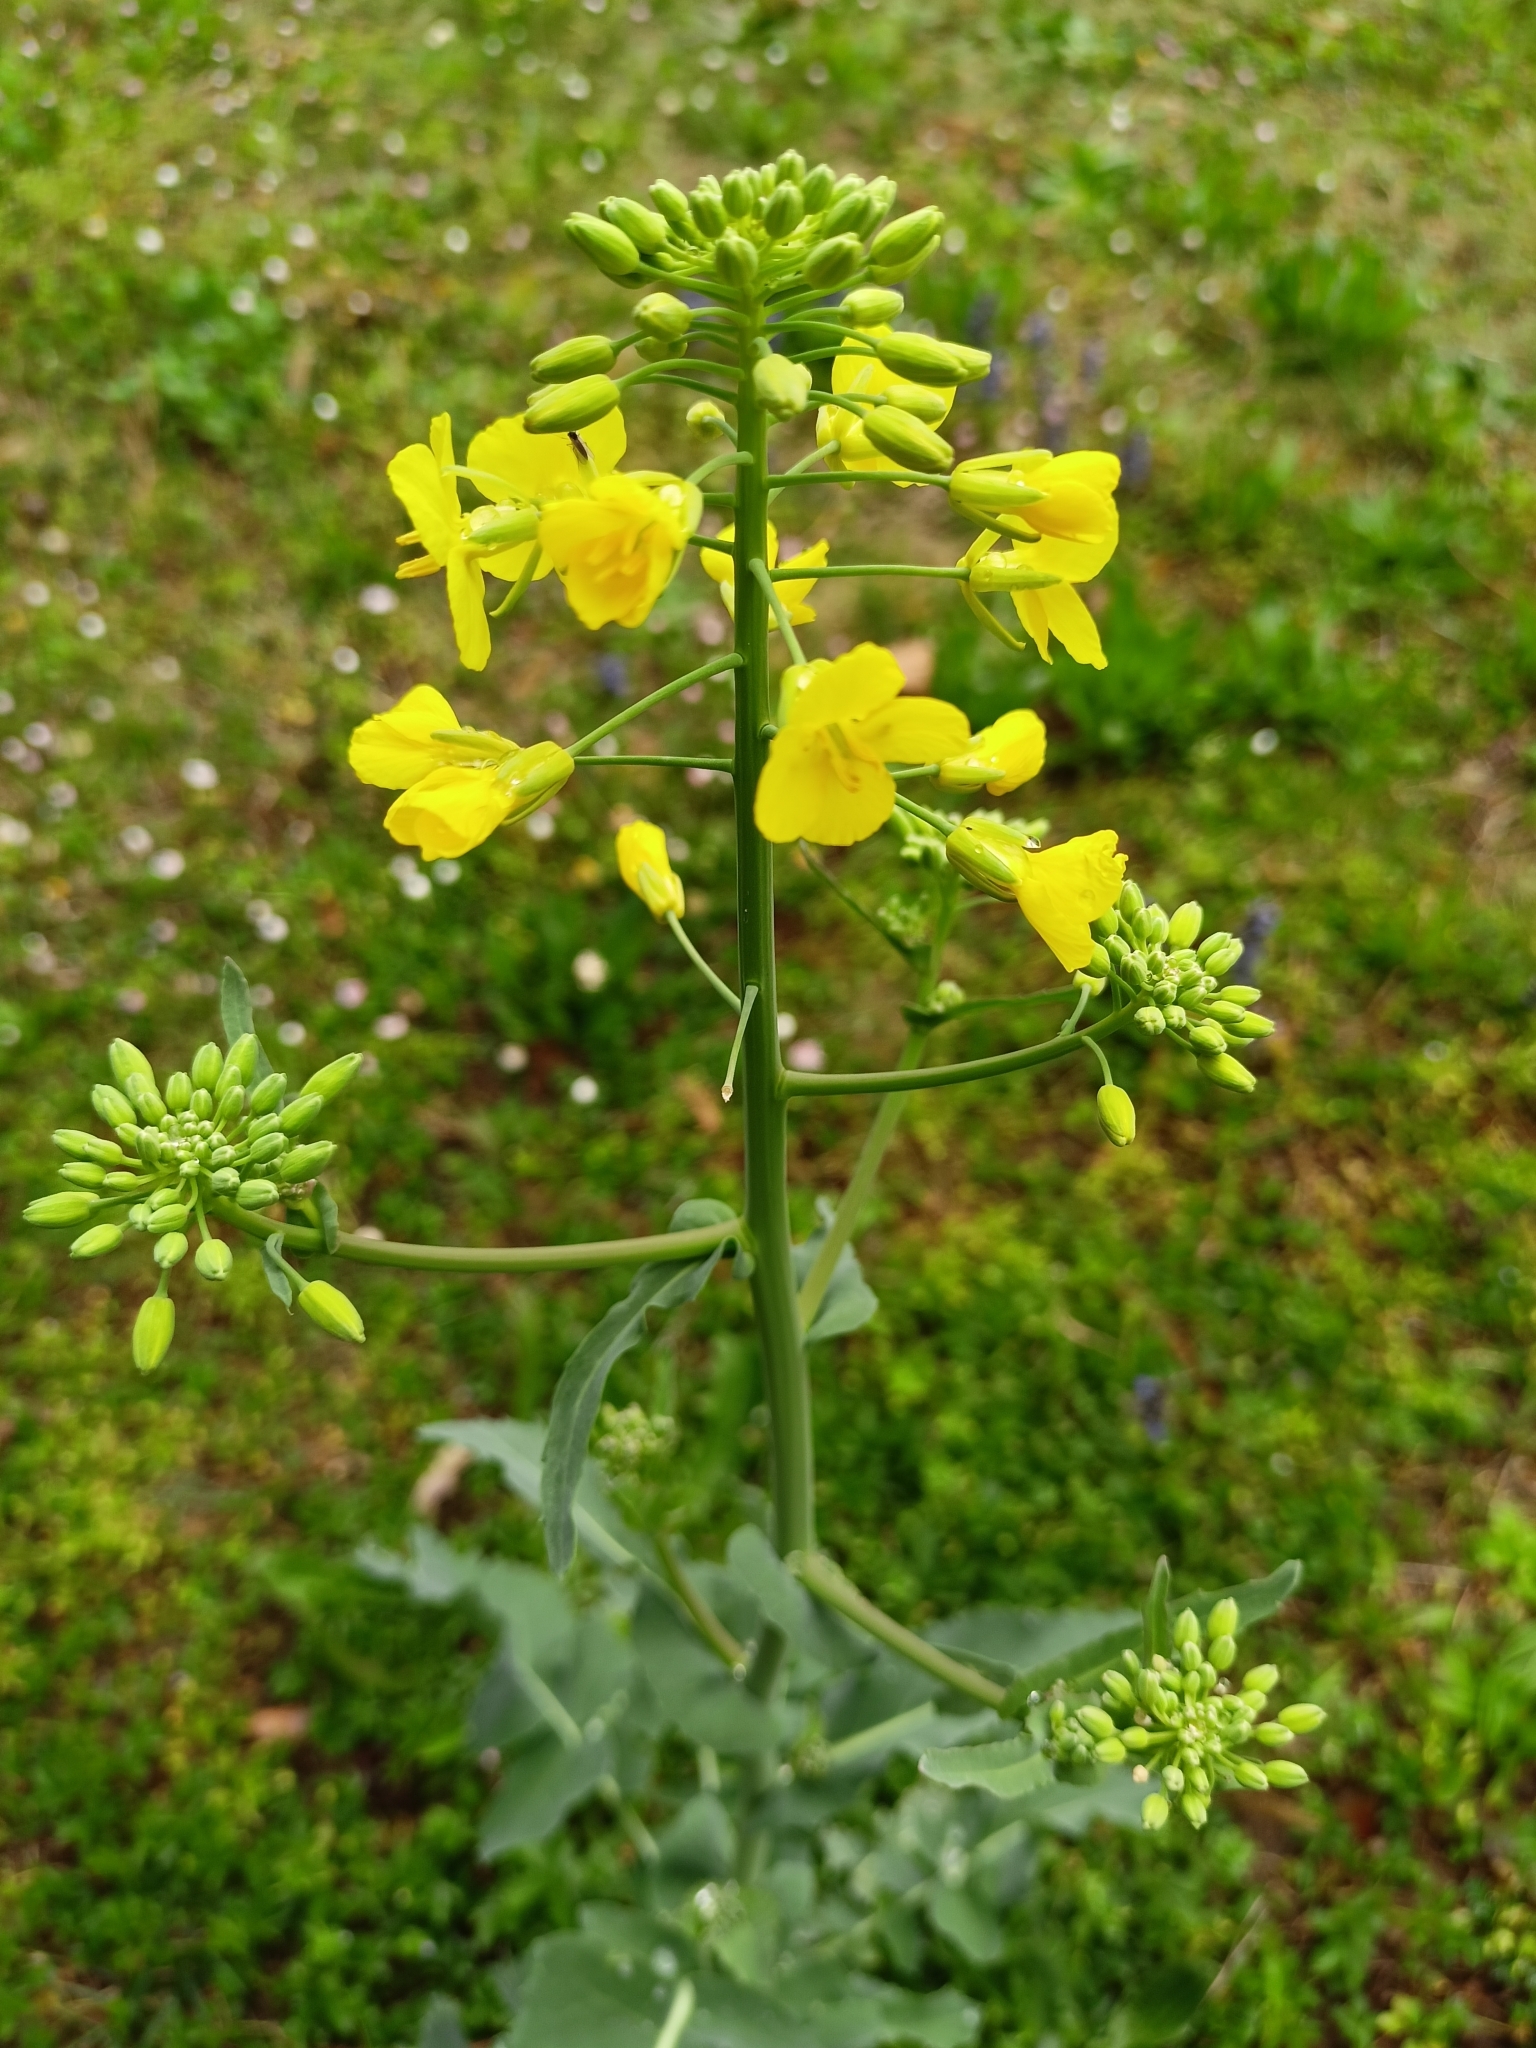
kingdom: Plantae
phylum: Tracheophyta
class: Magnoliopsida
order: Brassicales
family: Brassicaceae
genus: Brassica
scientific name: Brassica napus
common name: Rape
